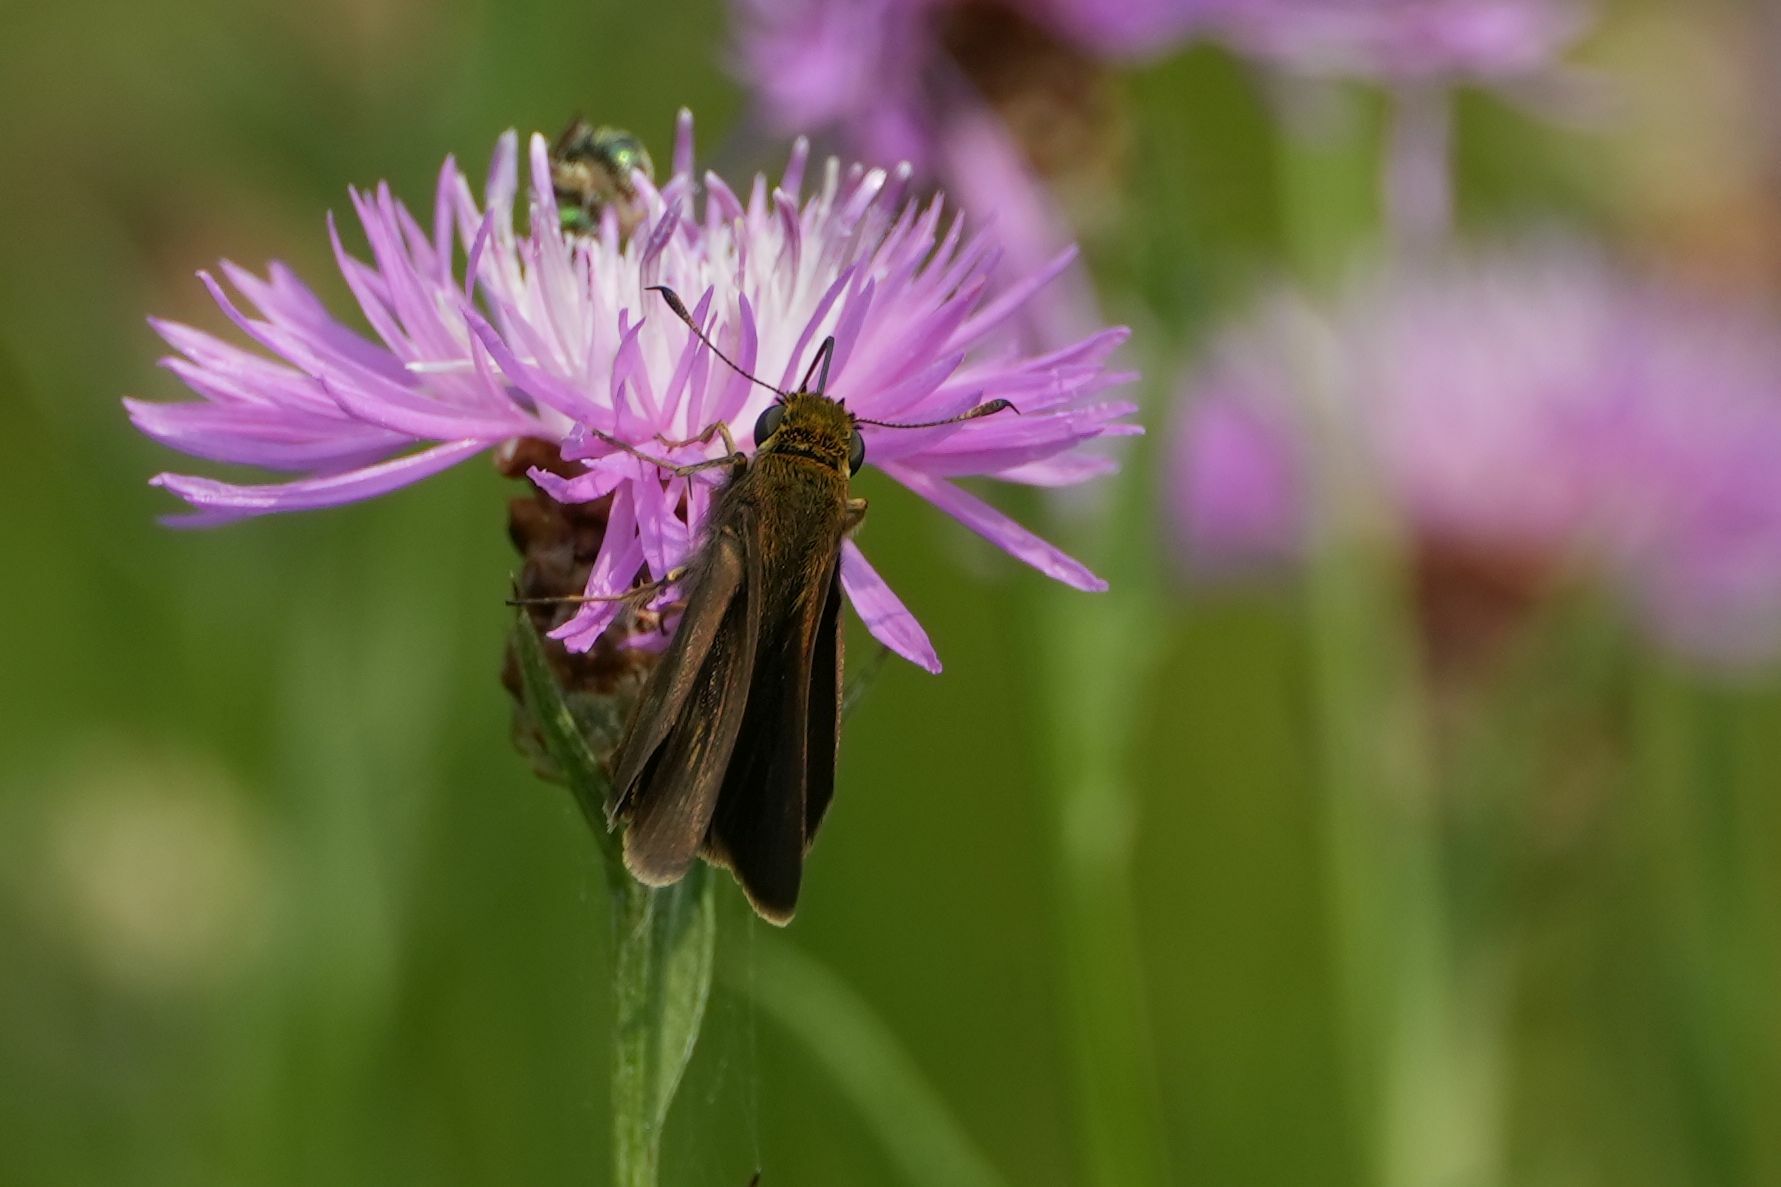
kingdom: Animalia
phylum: Arthropoda
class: Insecta
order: Lepidoptera
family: Hesperiidae
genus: Euphyes
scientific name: Euphyes vestris
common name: Dun skipper
